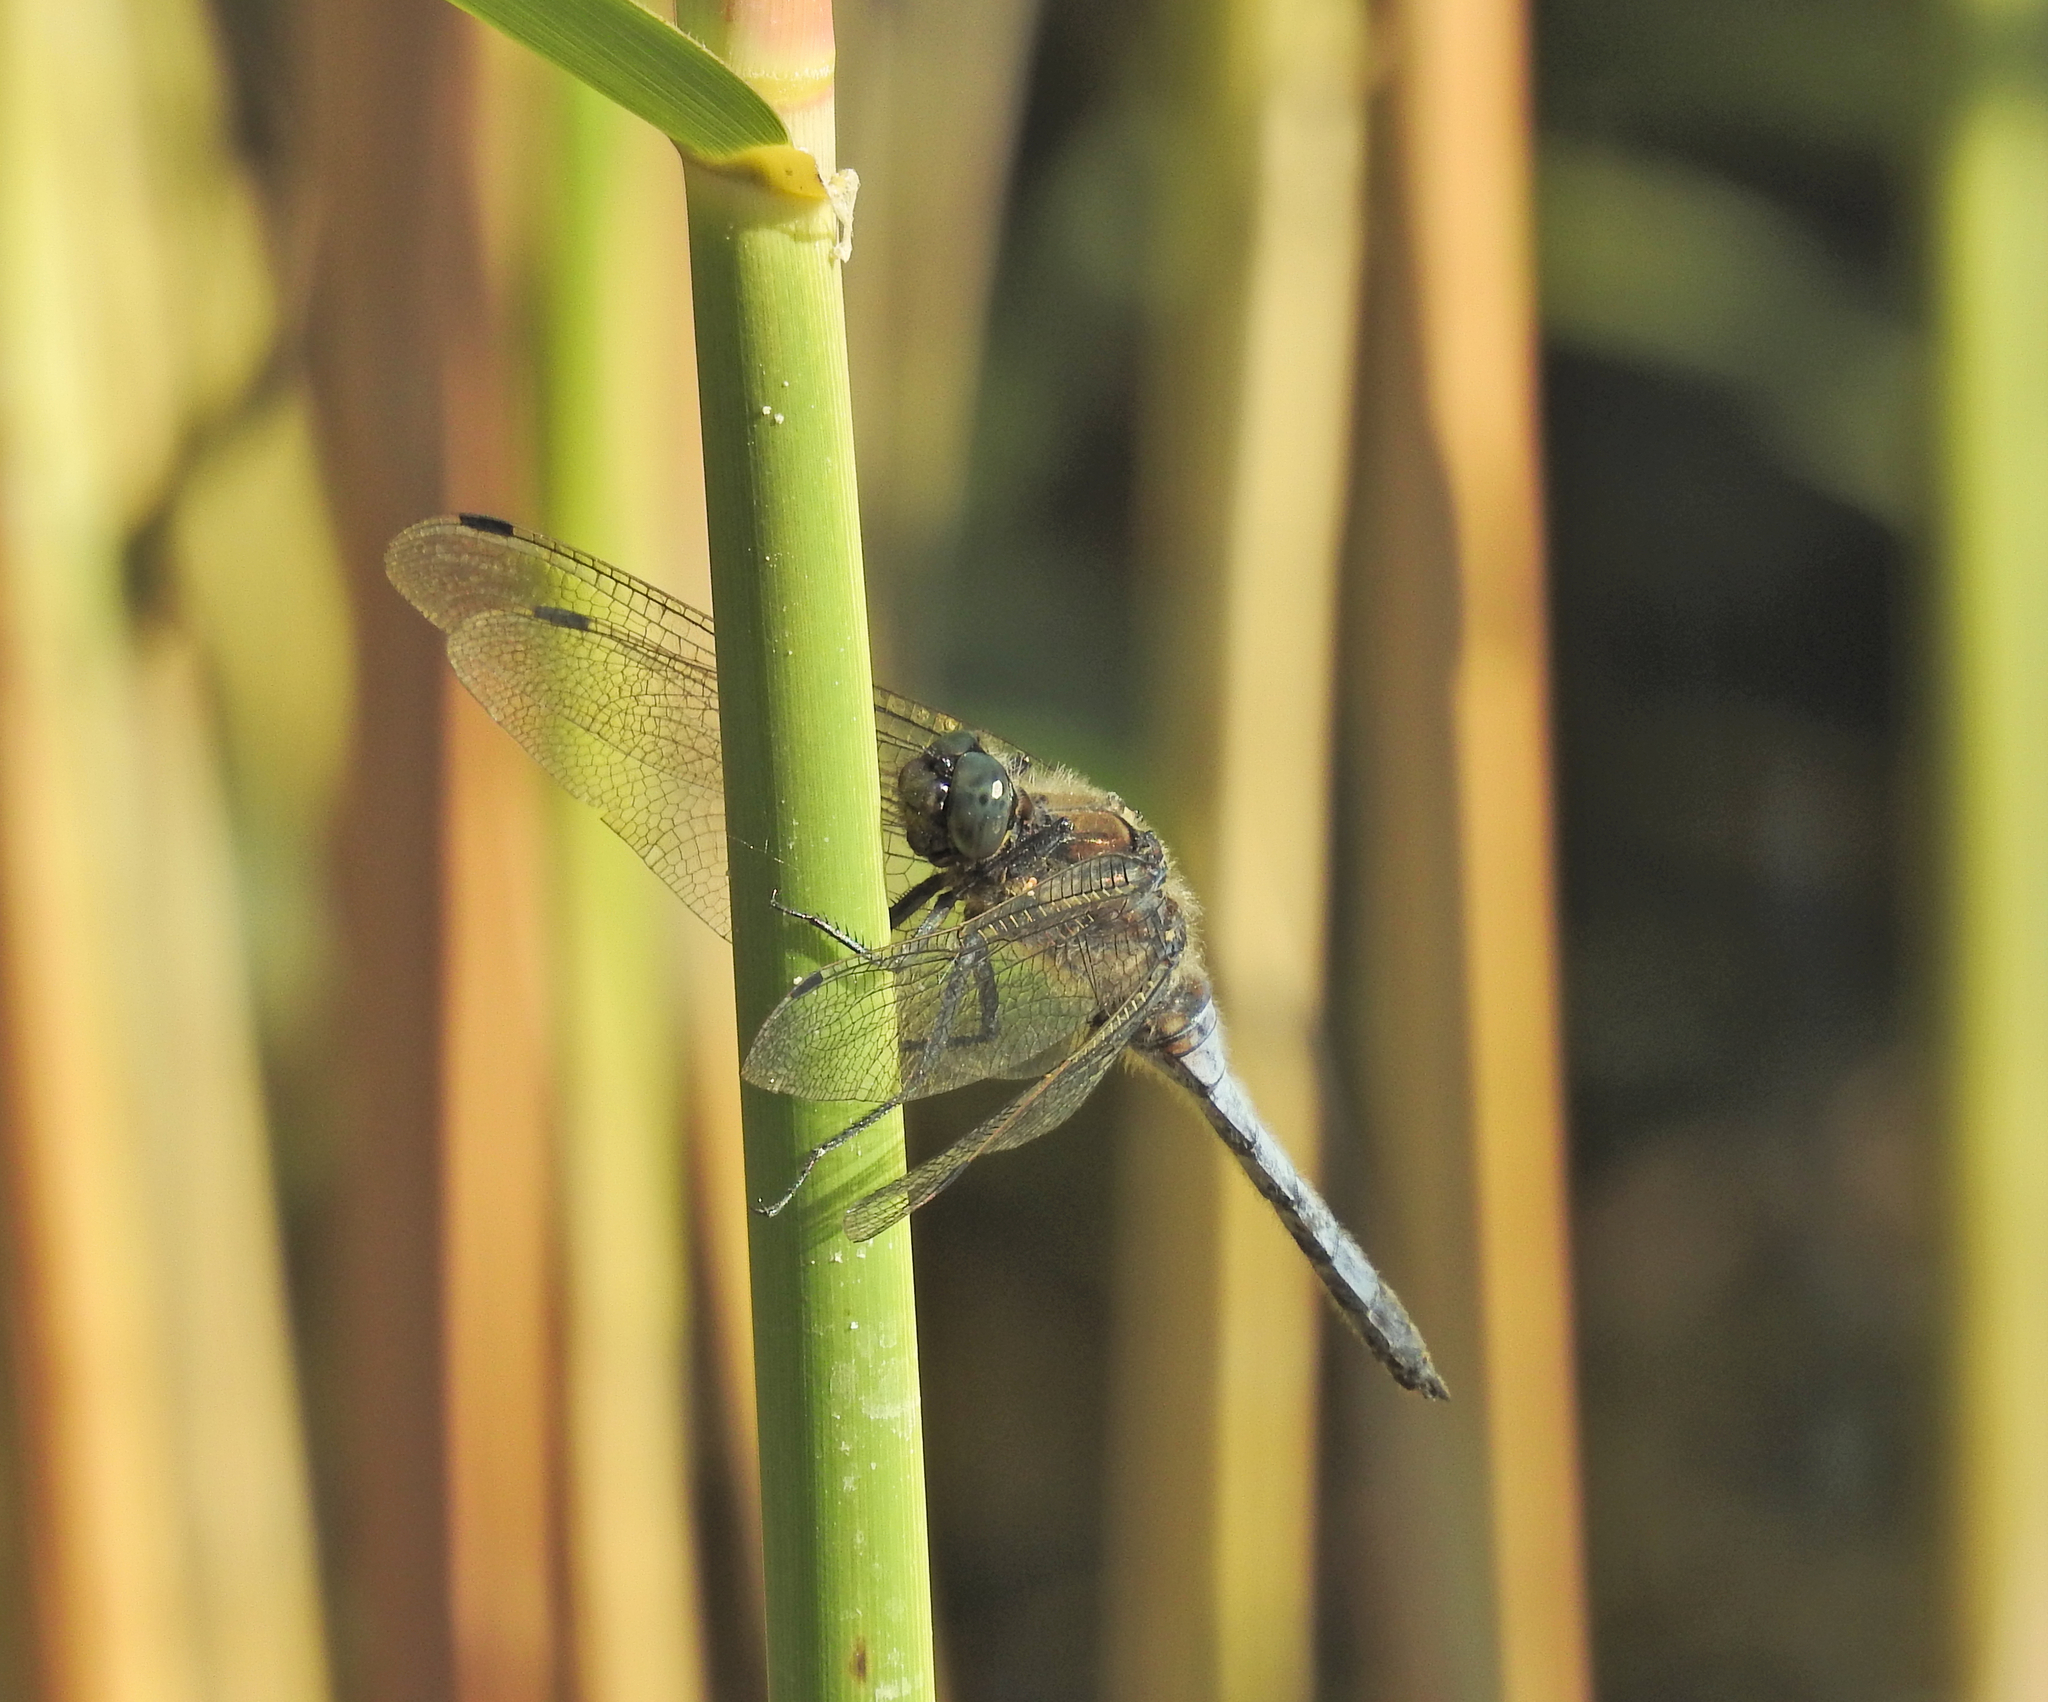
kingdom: Animalia
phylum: Arthropoda
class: Insecta
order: Odonata
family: Libellulidae
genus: Orthetrum
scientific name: Orthetrum cancellatum
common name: Black-tailed skimmer
